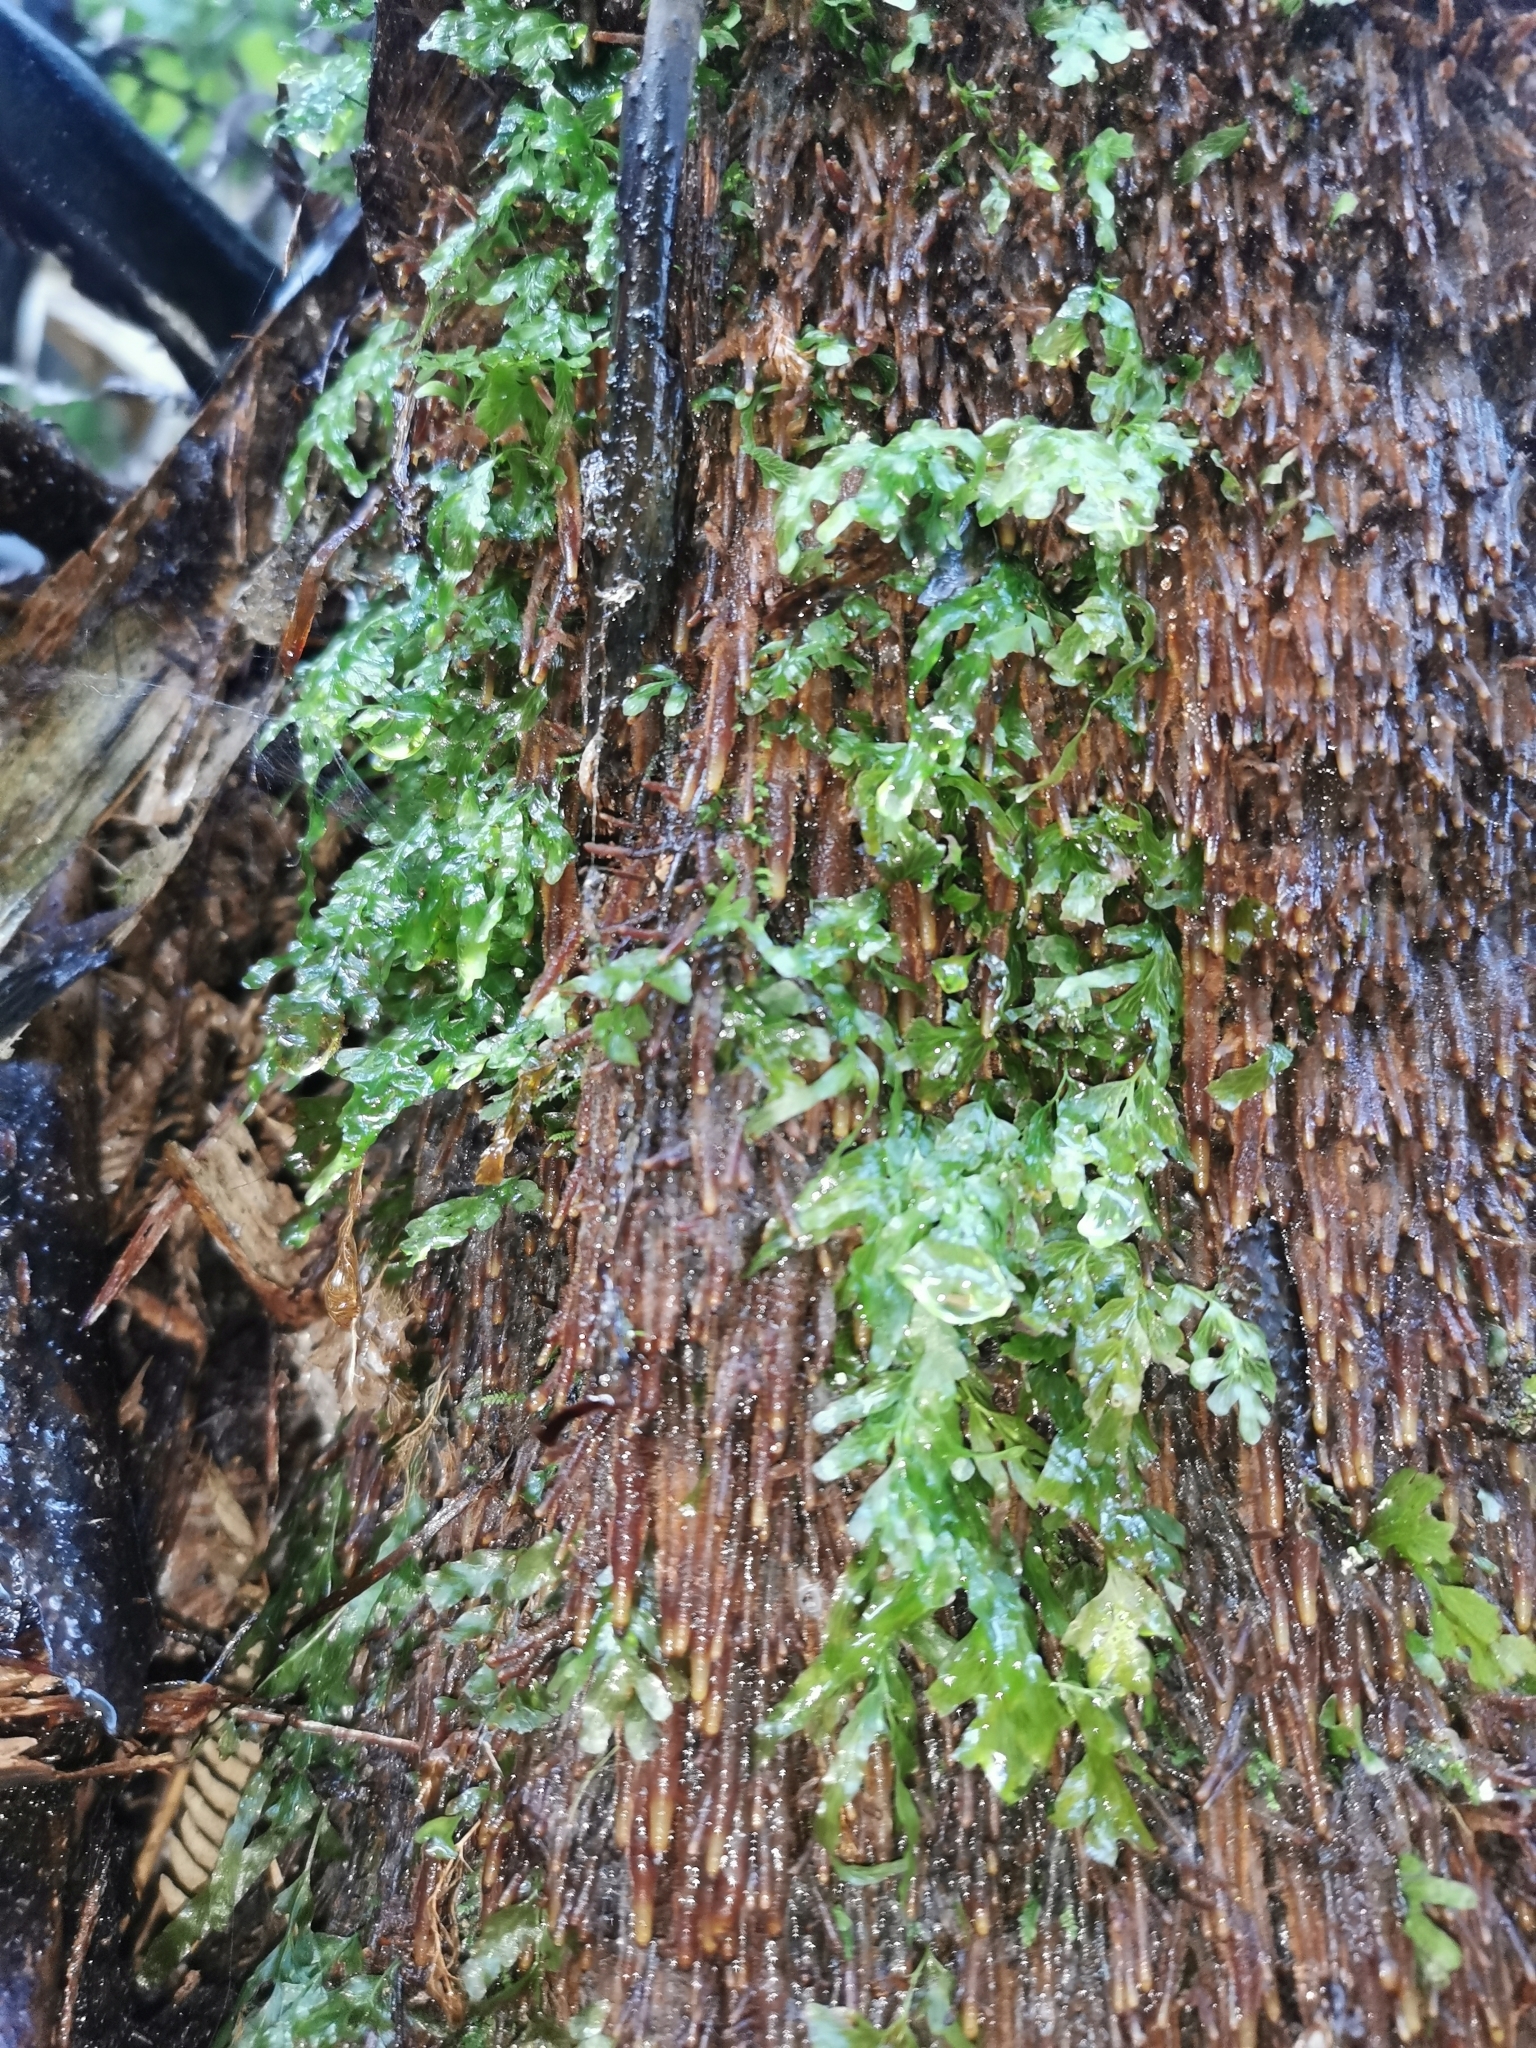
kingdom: Plantae
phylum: Tracheophyta
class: Polypodiopsida
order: Hymenophyllales
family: Hymenophyllaceae
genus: Polyphlebium
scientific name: Polyphlebium venosum
